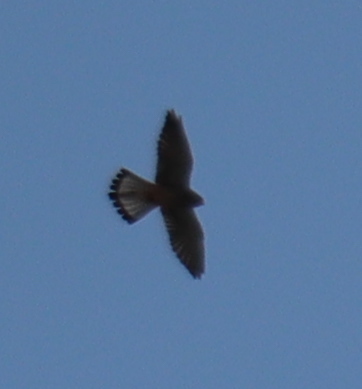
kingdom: Animalia
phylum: Chordata
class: Aves
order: Falconiformes
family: Falconidae
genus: Falco
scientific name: Falco tinnunculus
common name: Common kestrel
